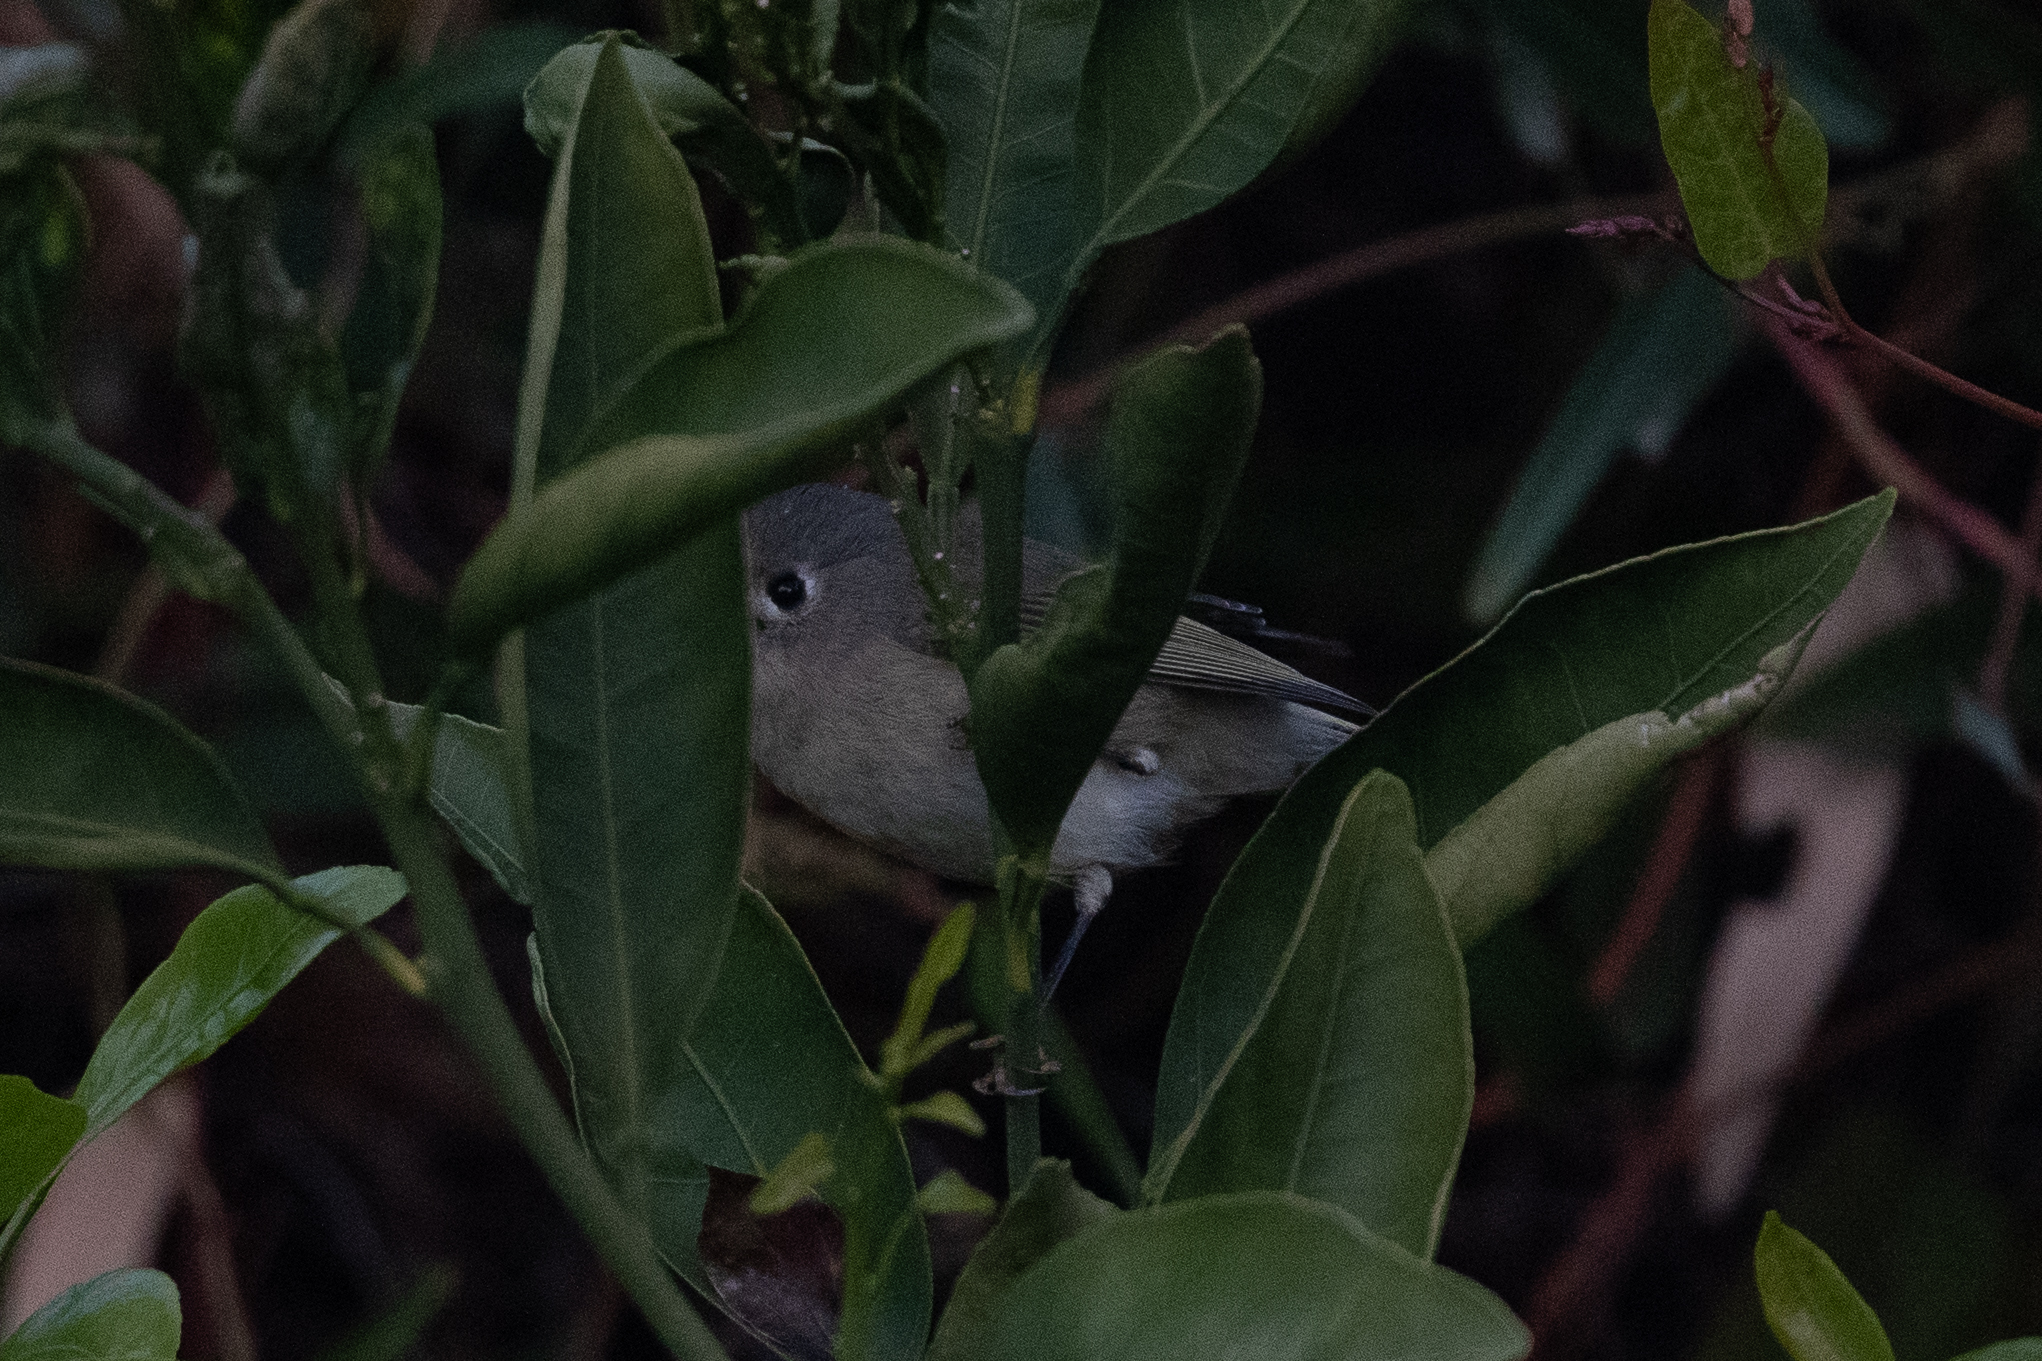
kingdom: Animalia
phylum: Chordata
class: Aves
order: Passeriformes
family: Regulidae
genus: Regulus
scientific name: Regulus calendula
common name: Ruby-crowned kinglet
